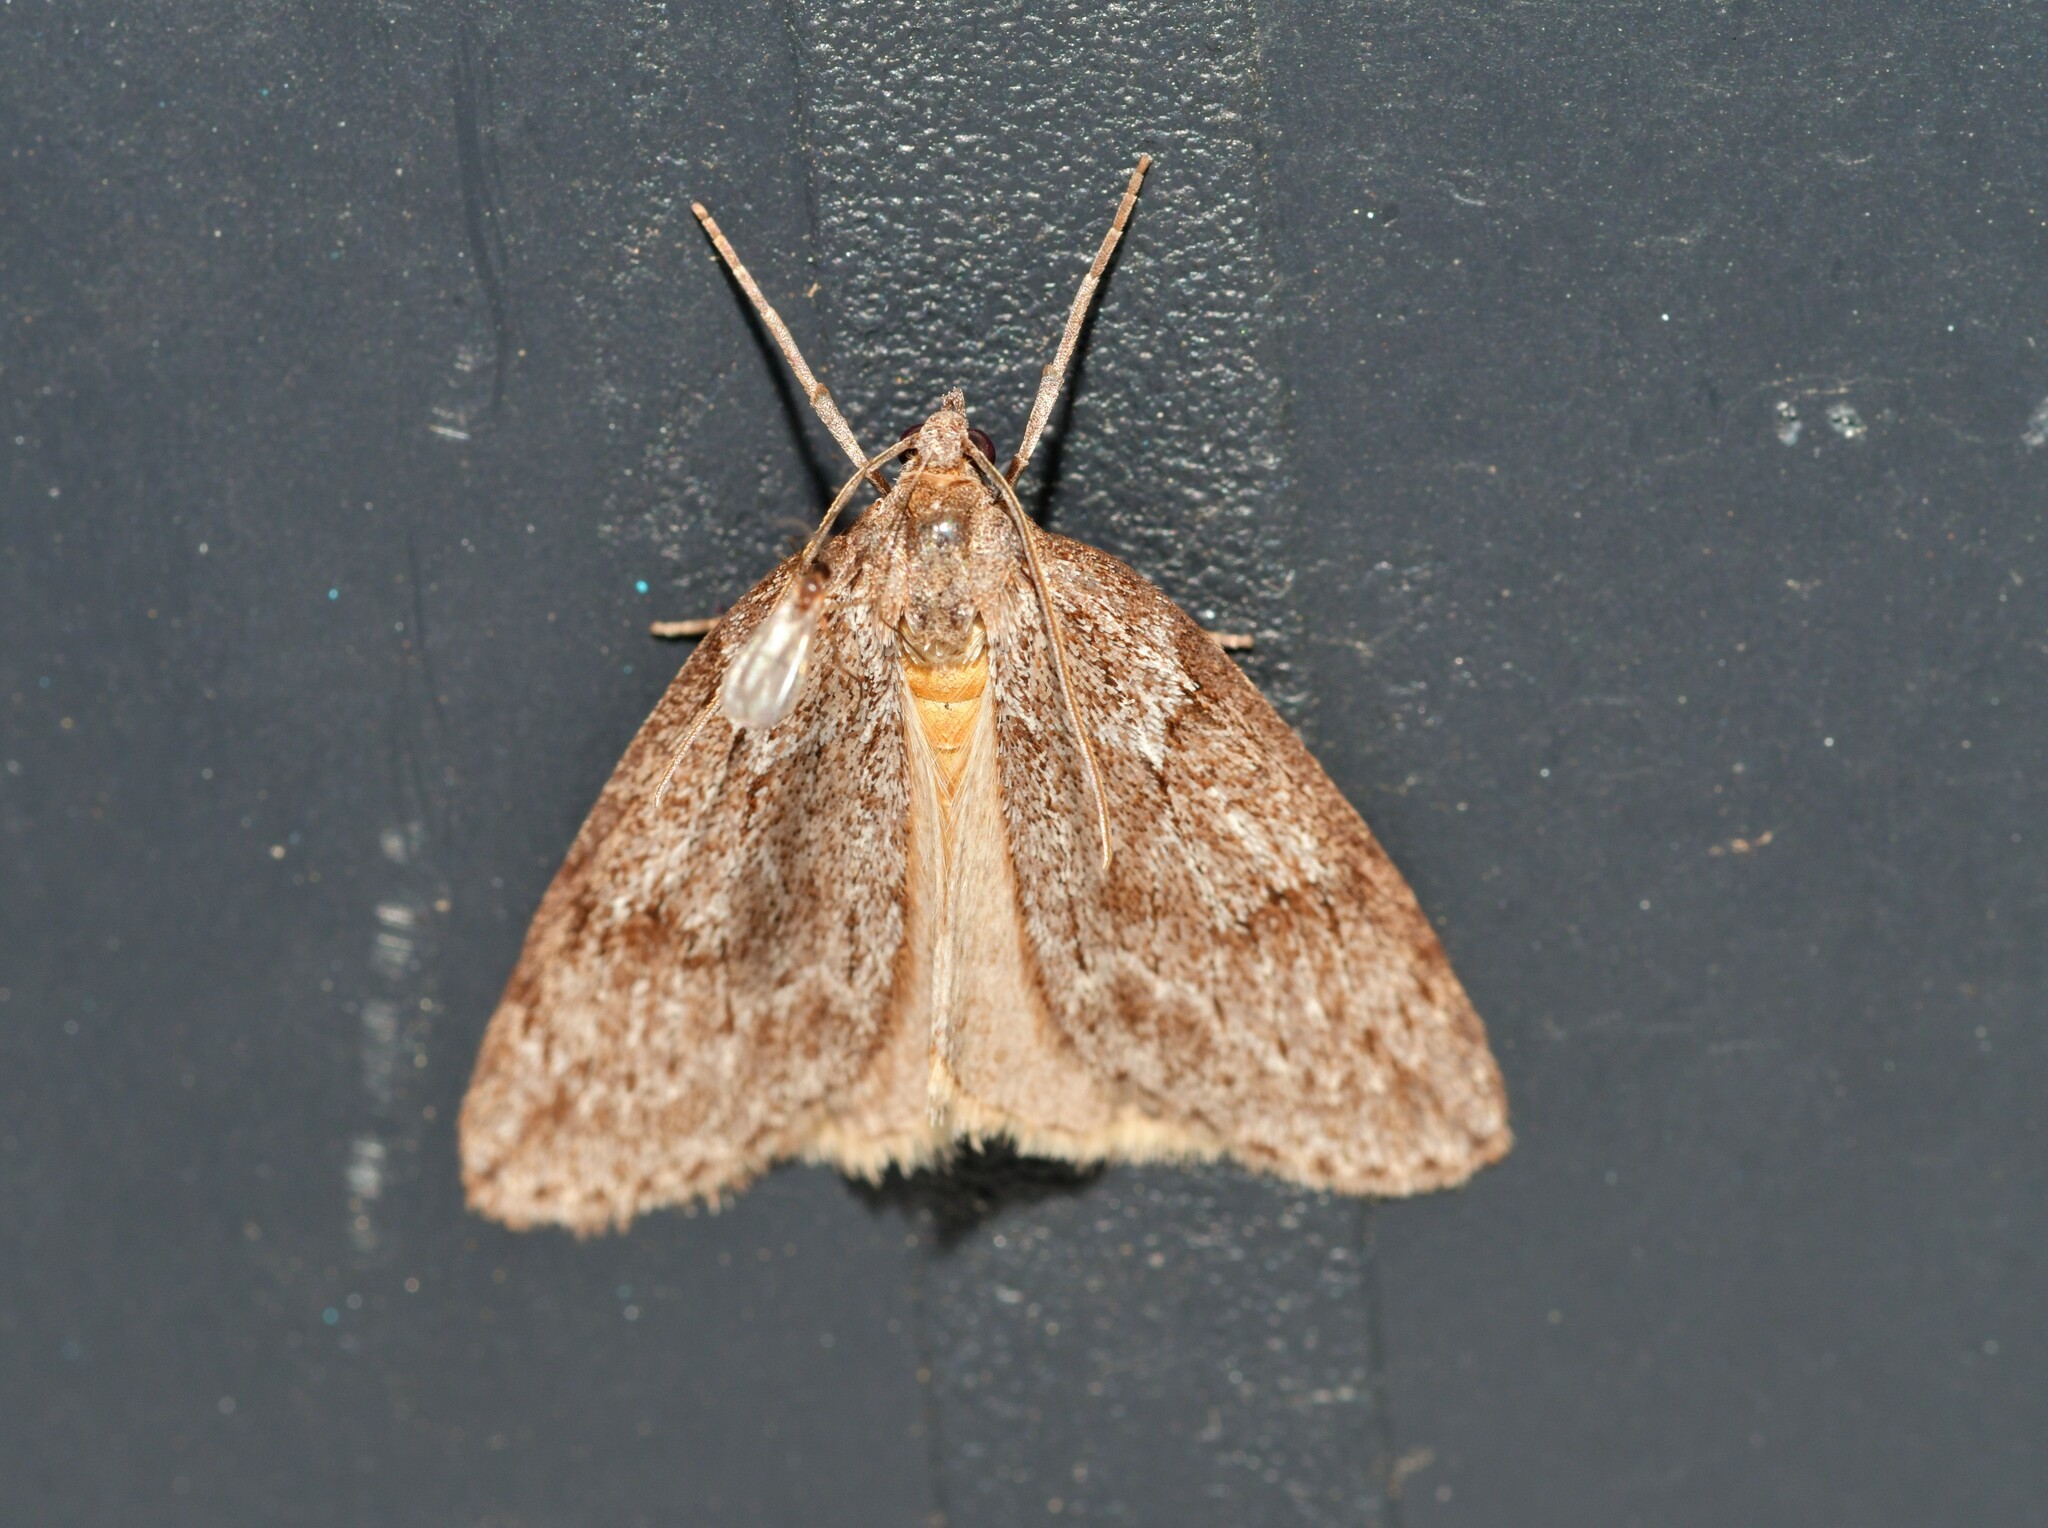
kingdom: Animalia
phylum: Arthropoda
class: Insecta
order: Lepidoptera
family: Geometridae
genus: Pachycnemia
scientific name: Pachycnemia hippocastanaria
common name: Horse chestnut
